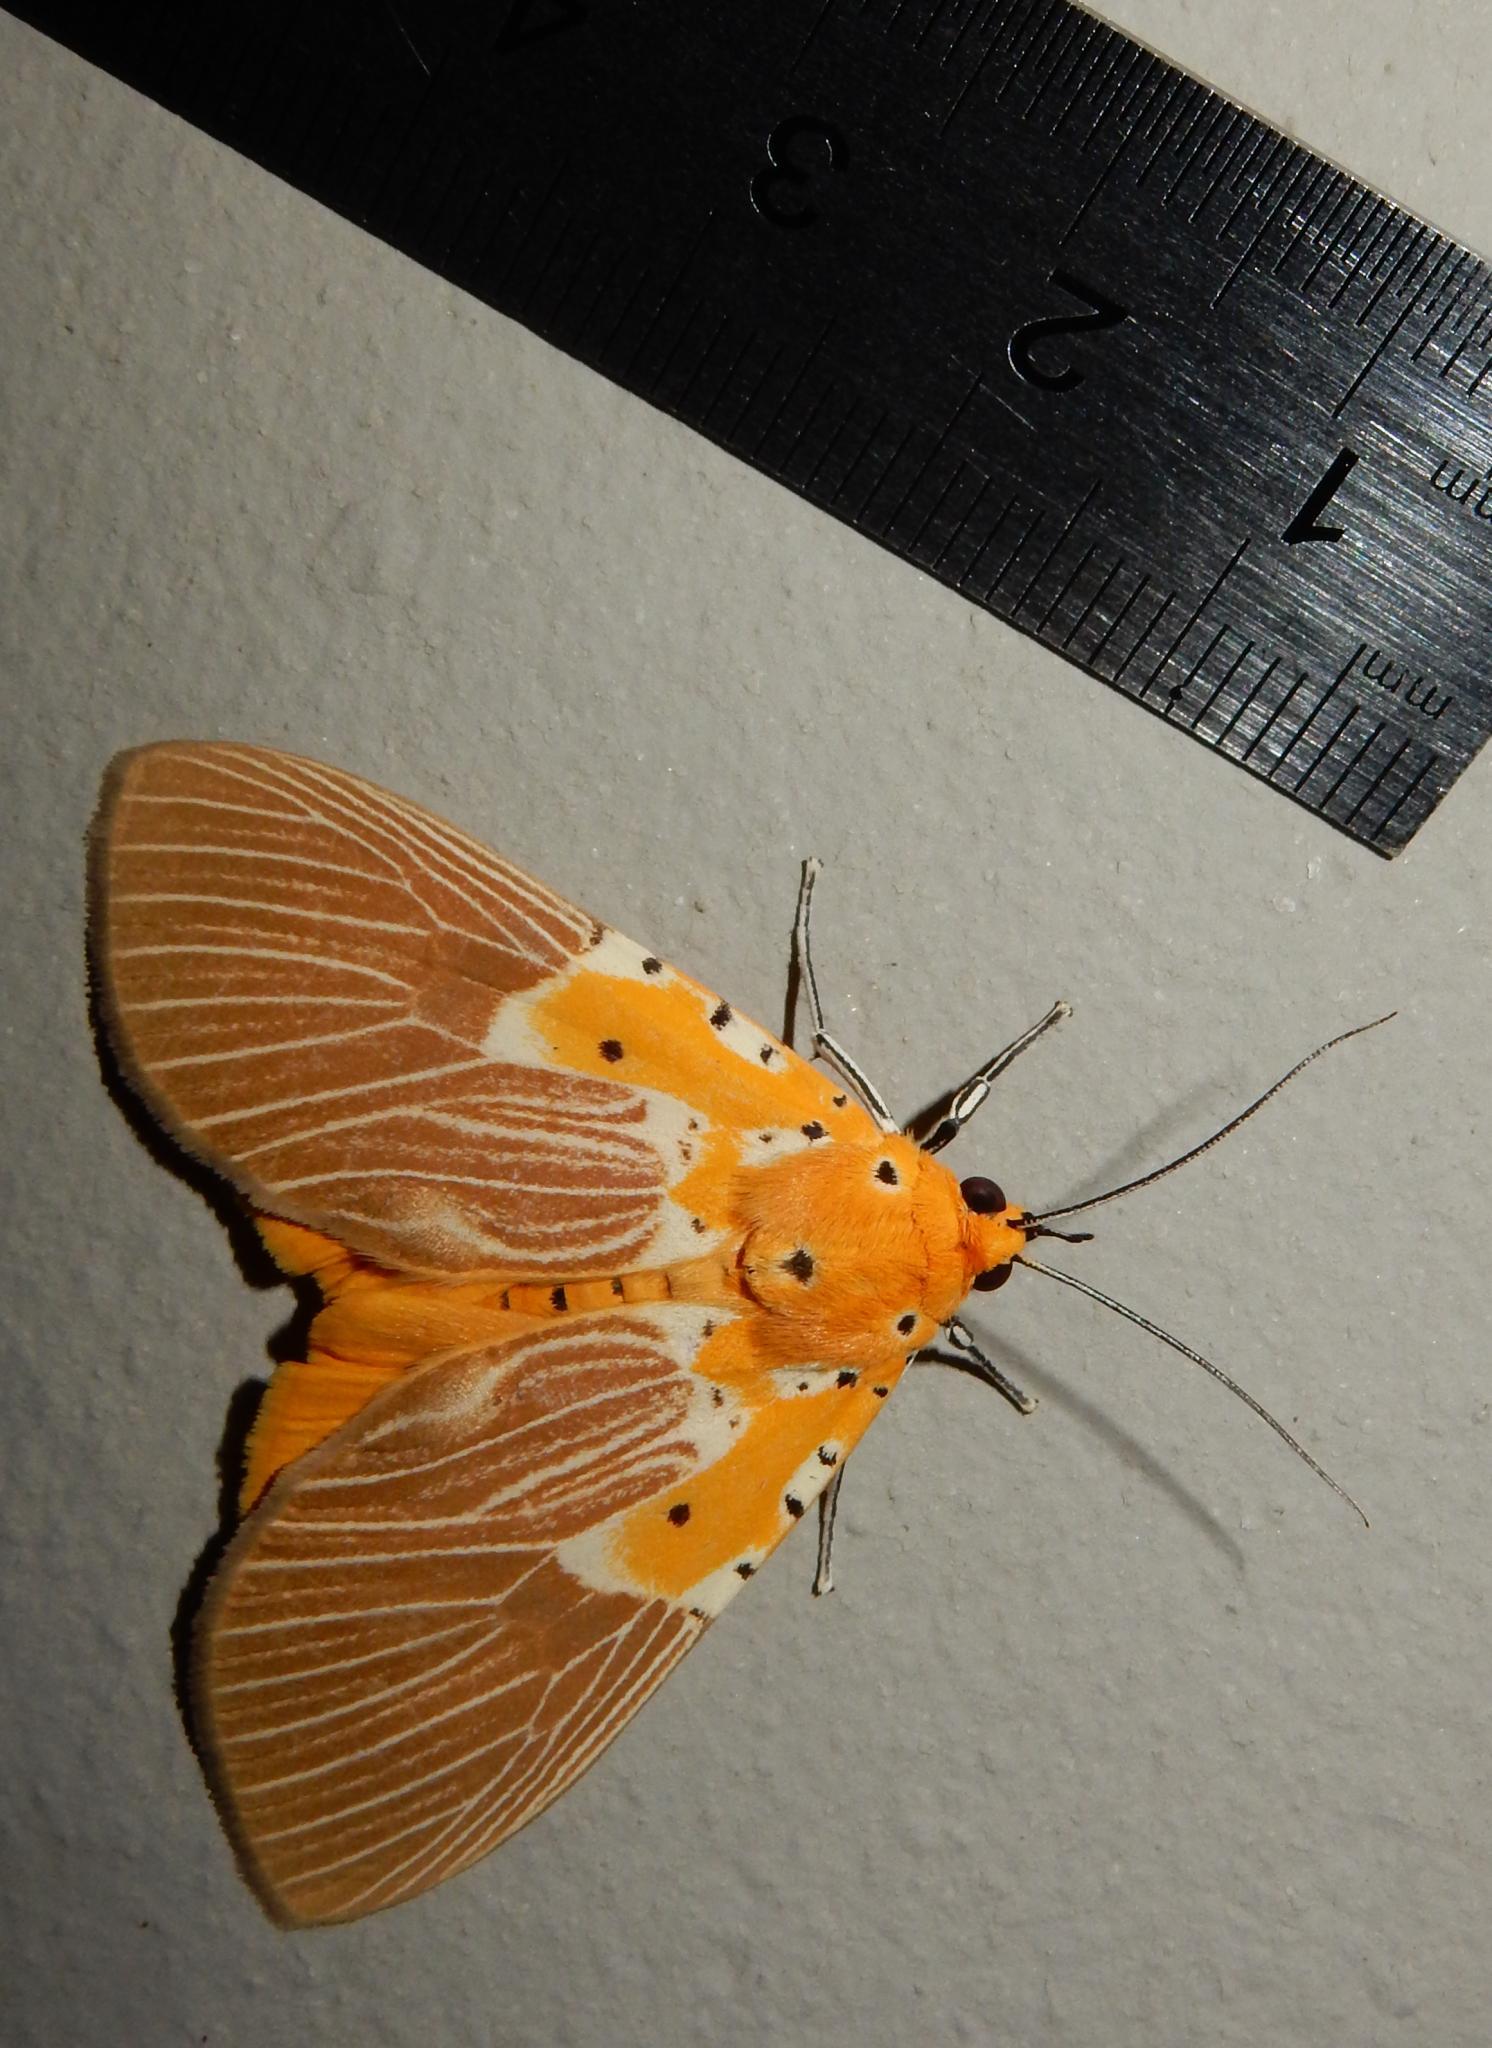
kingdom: Animalia
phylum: Arthropoda
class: Insecta
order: Lepidoptera
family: Erebidae
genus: Asota
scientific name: Asota speciosa
